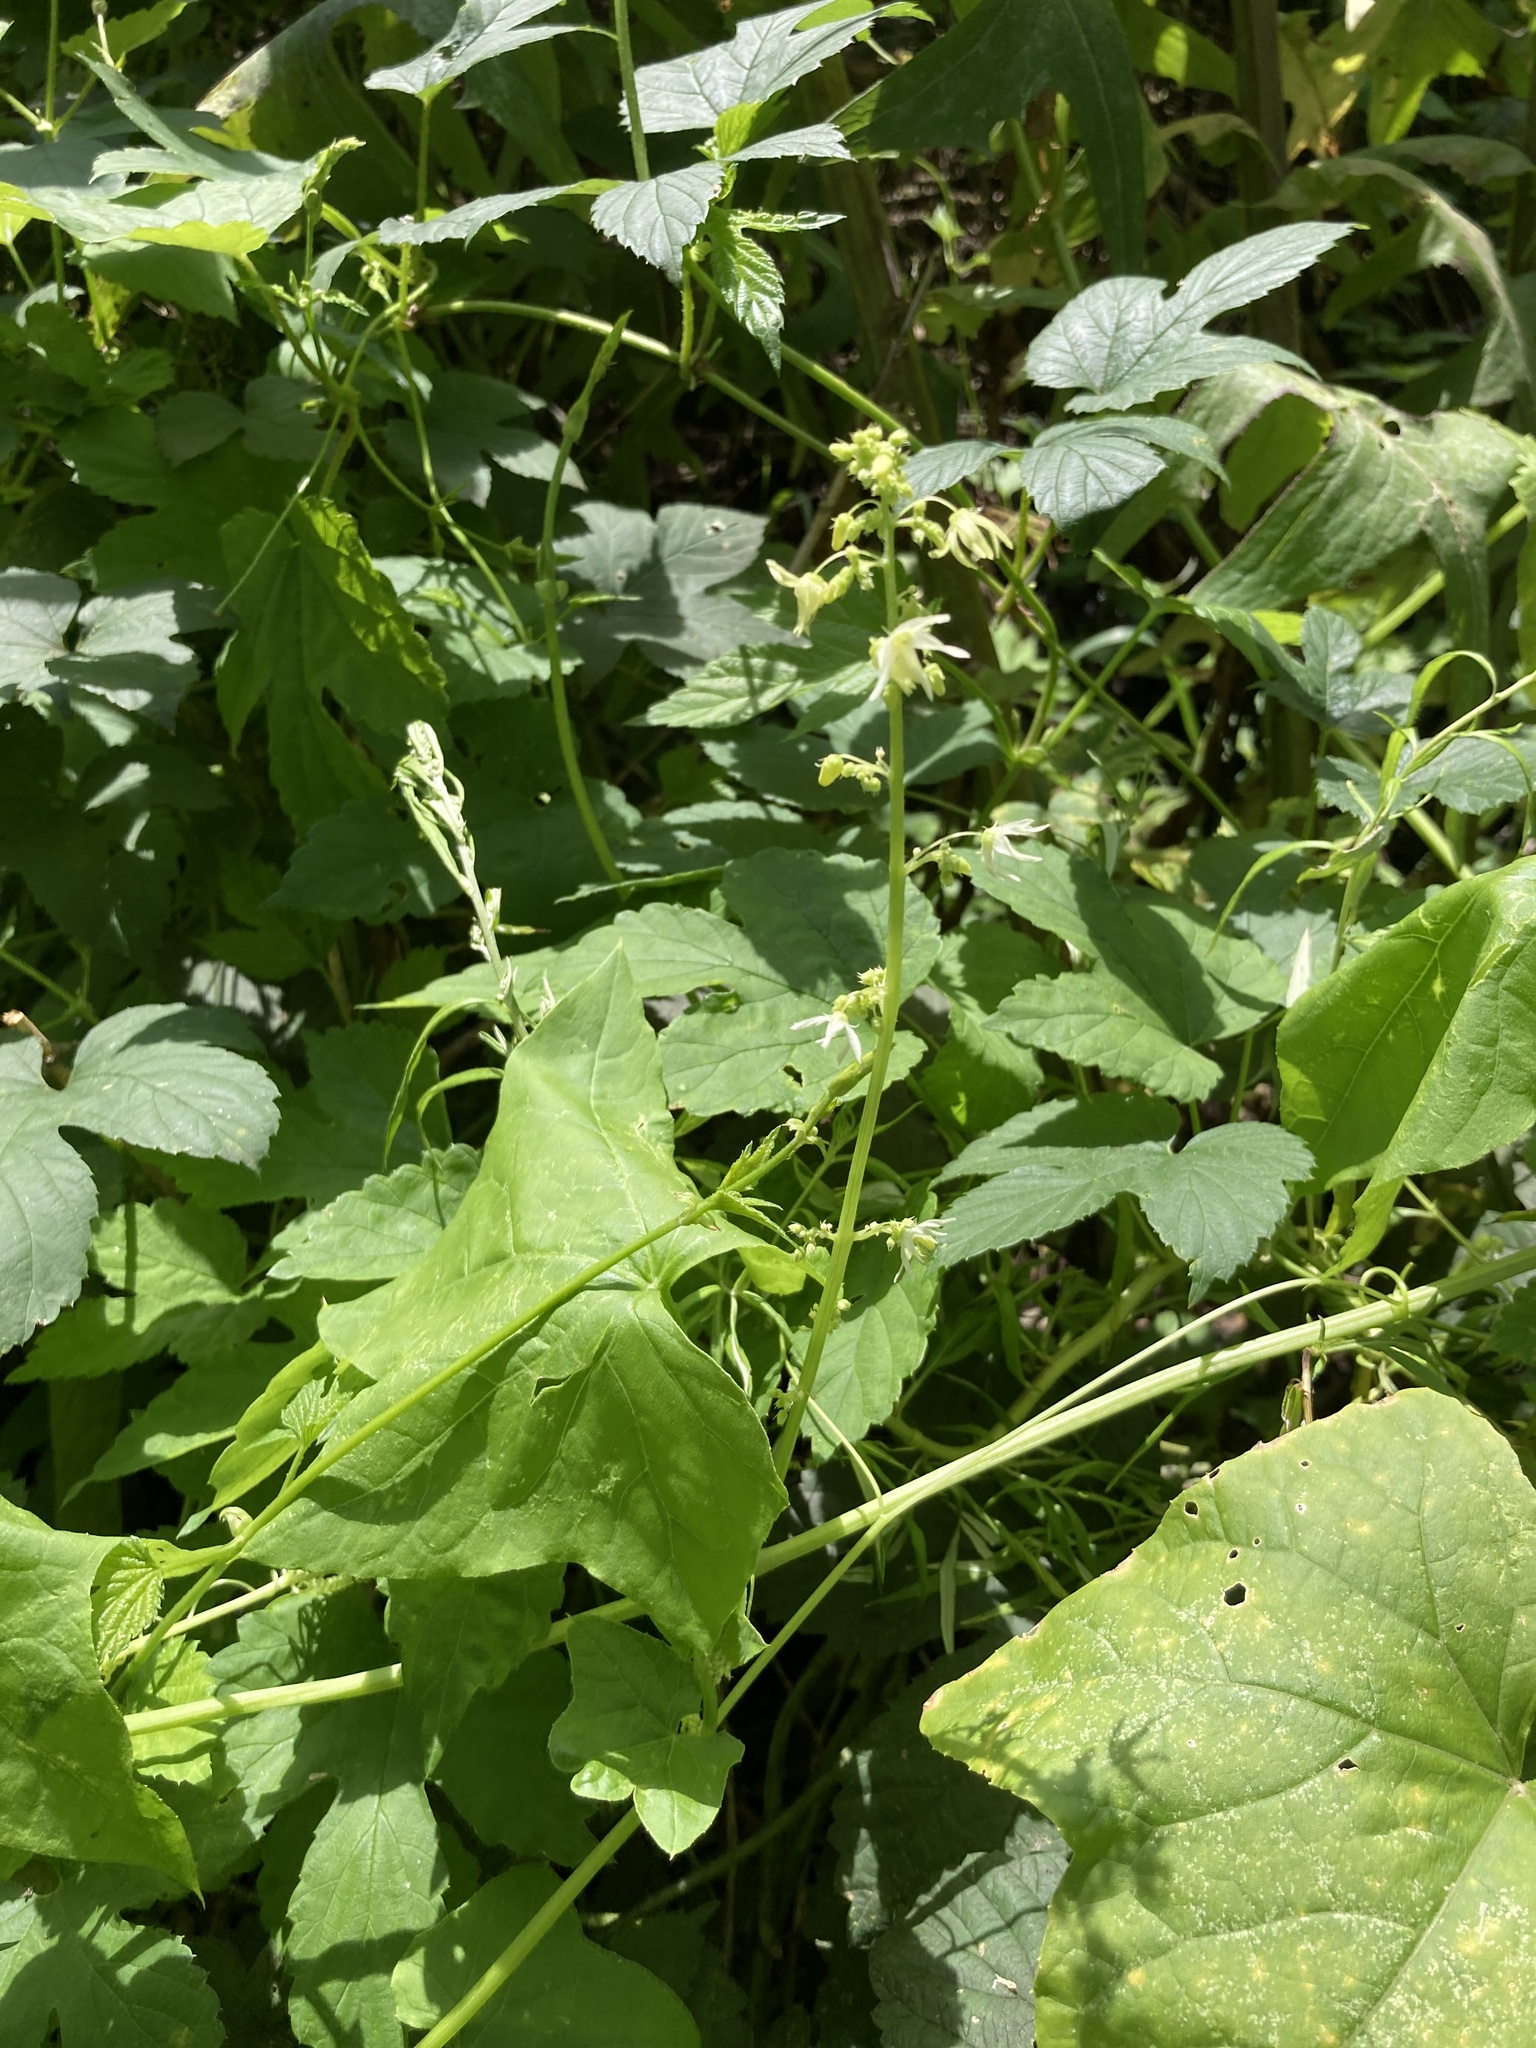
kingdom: Plantae
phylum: Tracheophyta
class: Magnoliopsida
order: Cucurbitales
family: Cucurbitaceae
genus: Echinocystis
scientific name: Echinocystis lobata
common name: Wild cucumber
